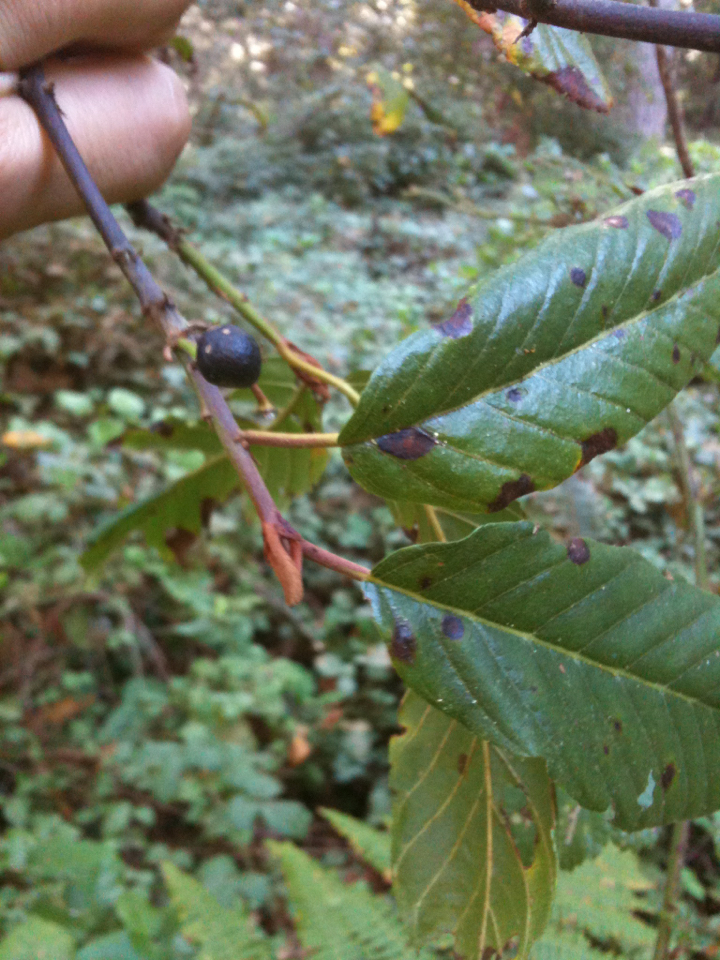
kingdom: Plantae
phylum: Tracheophyta
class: Magnoliopsida
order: Rosales
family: Rhamnaceae
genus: Frangula
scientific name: Frangula purshiana
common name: Cascara buckthorn
